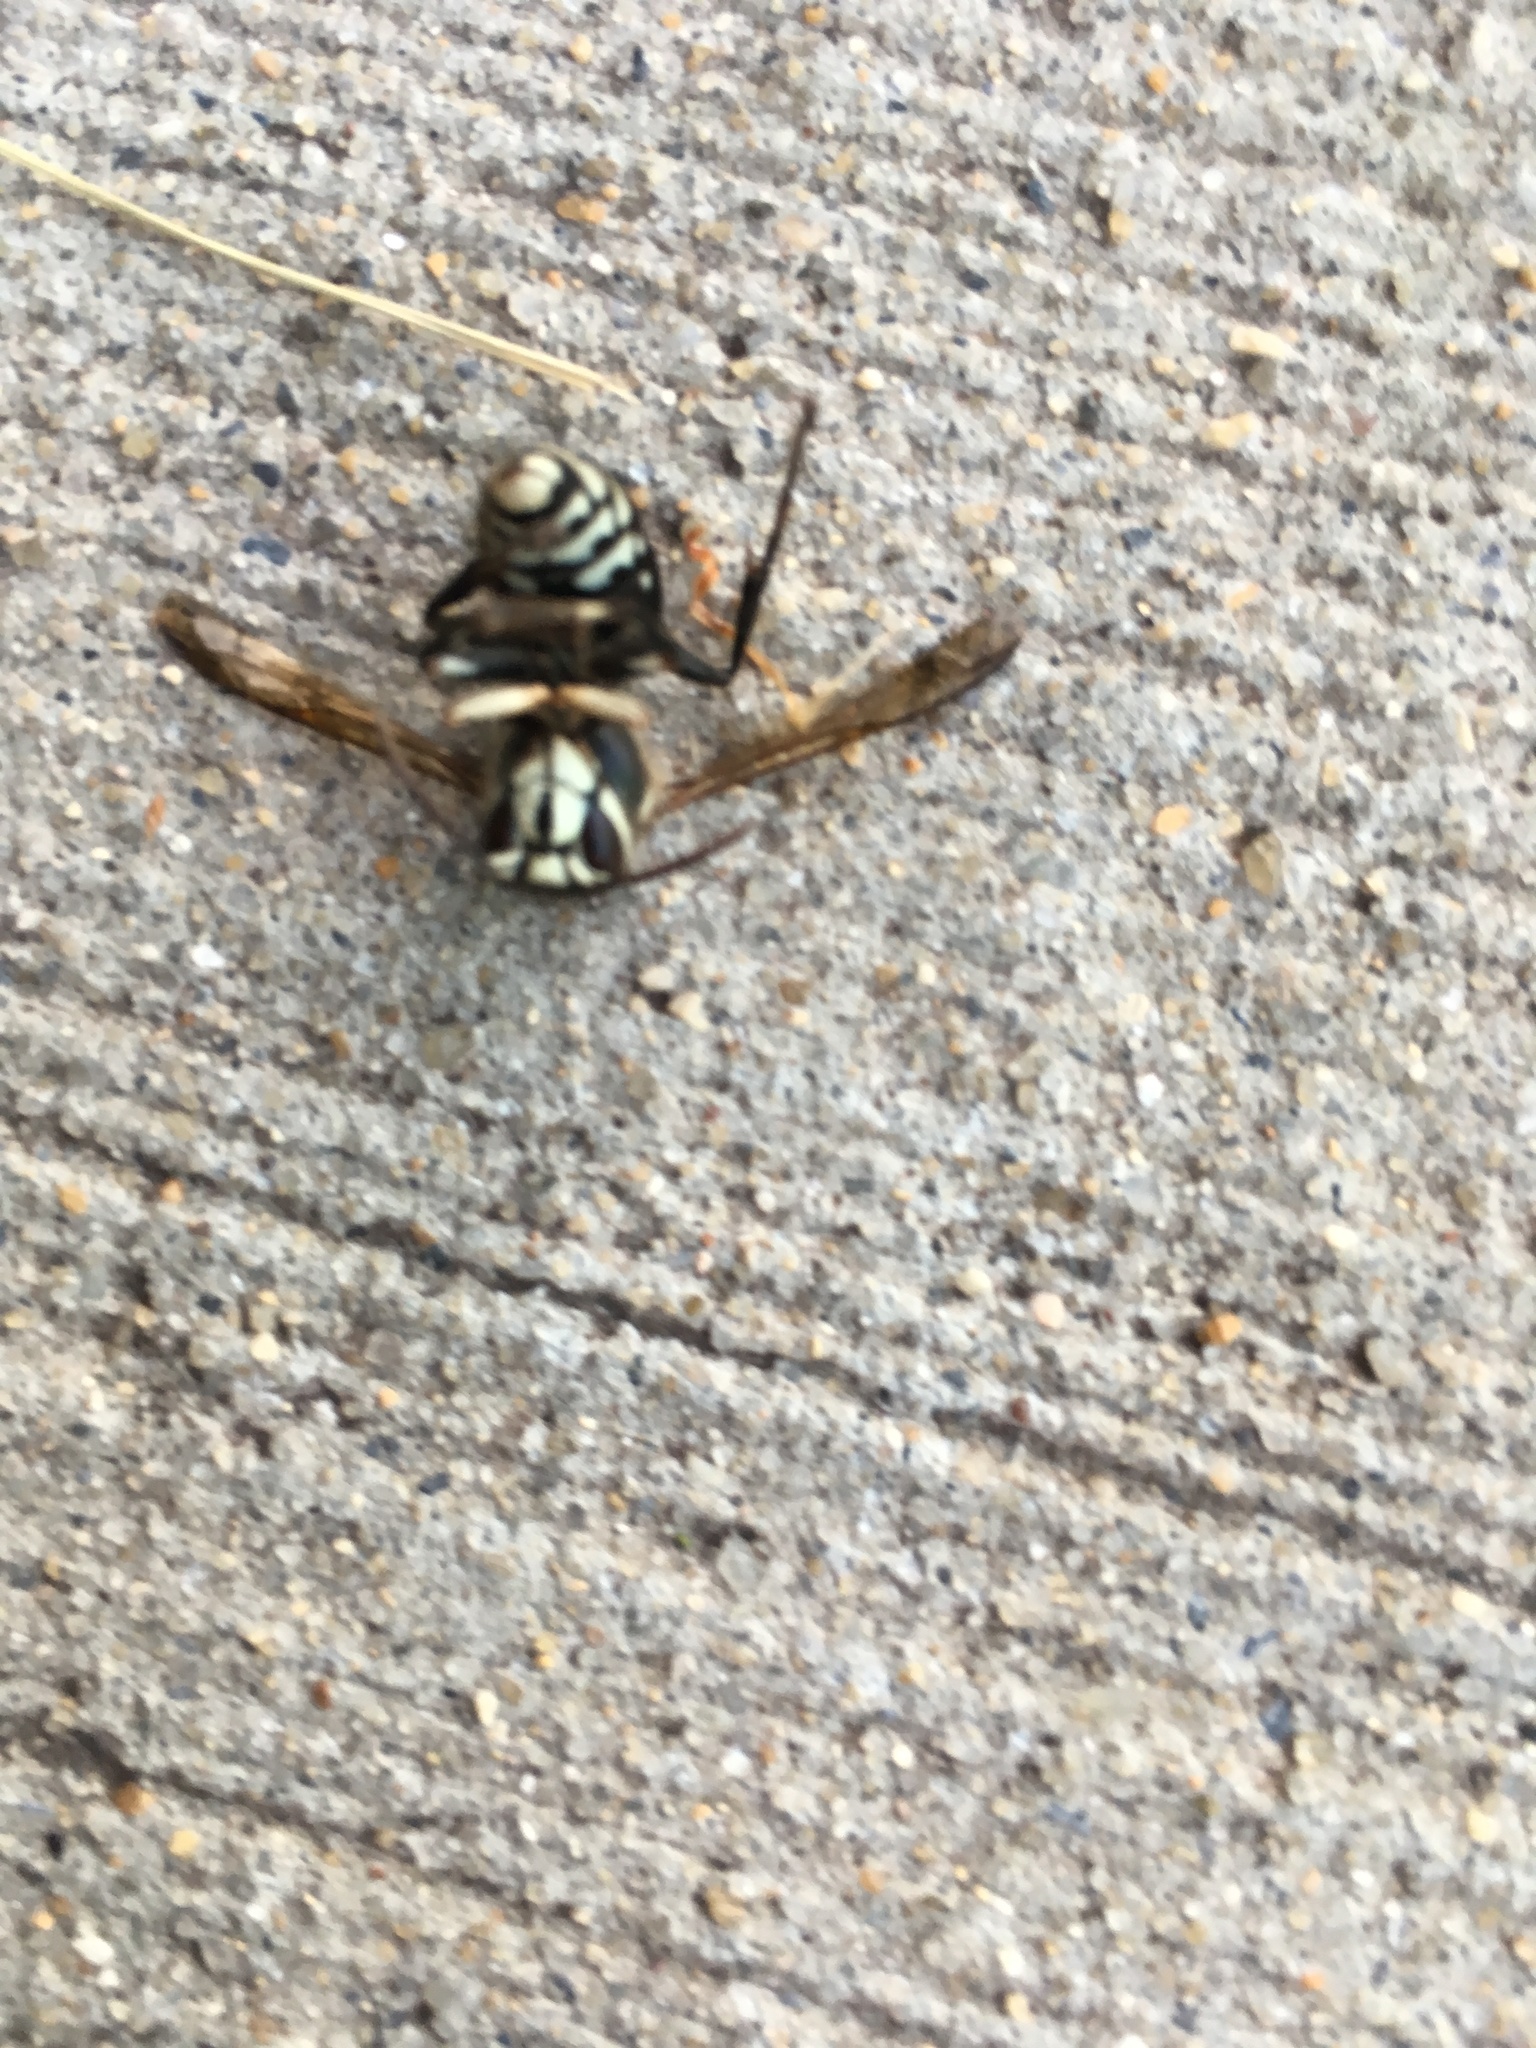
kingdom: Animalia
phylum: Arthropoda
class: Insecta
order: Hymenoptera
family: Vespidae
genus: Dolichovespula
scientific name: Dolichovespula maculata
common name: Bald-faced hornet
